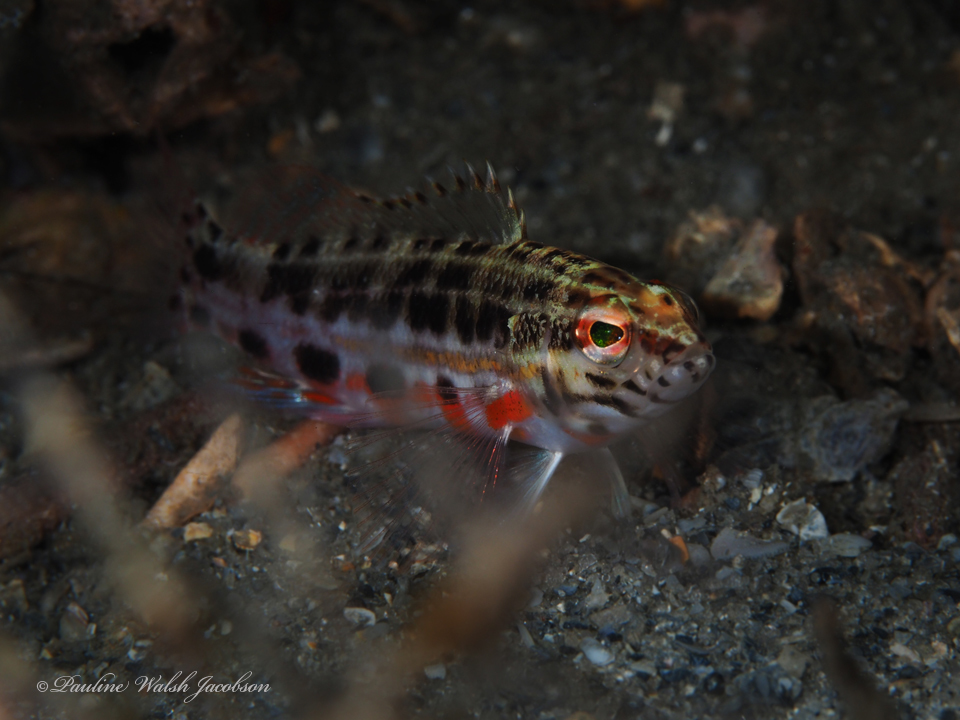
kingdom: Animalia
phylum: Chordata
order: Perciformes
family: Serranidae
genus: Serranus
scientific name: Serranus baldwini
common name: Lantern bass
